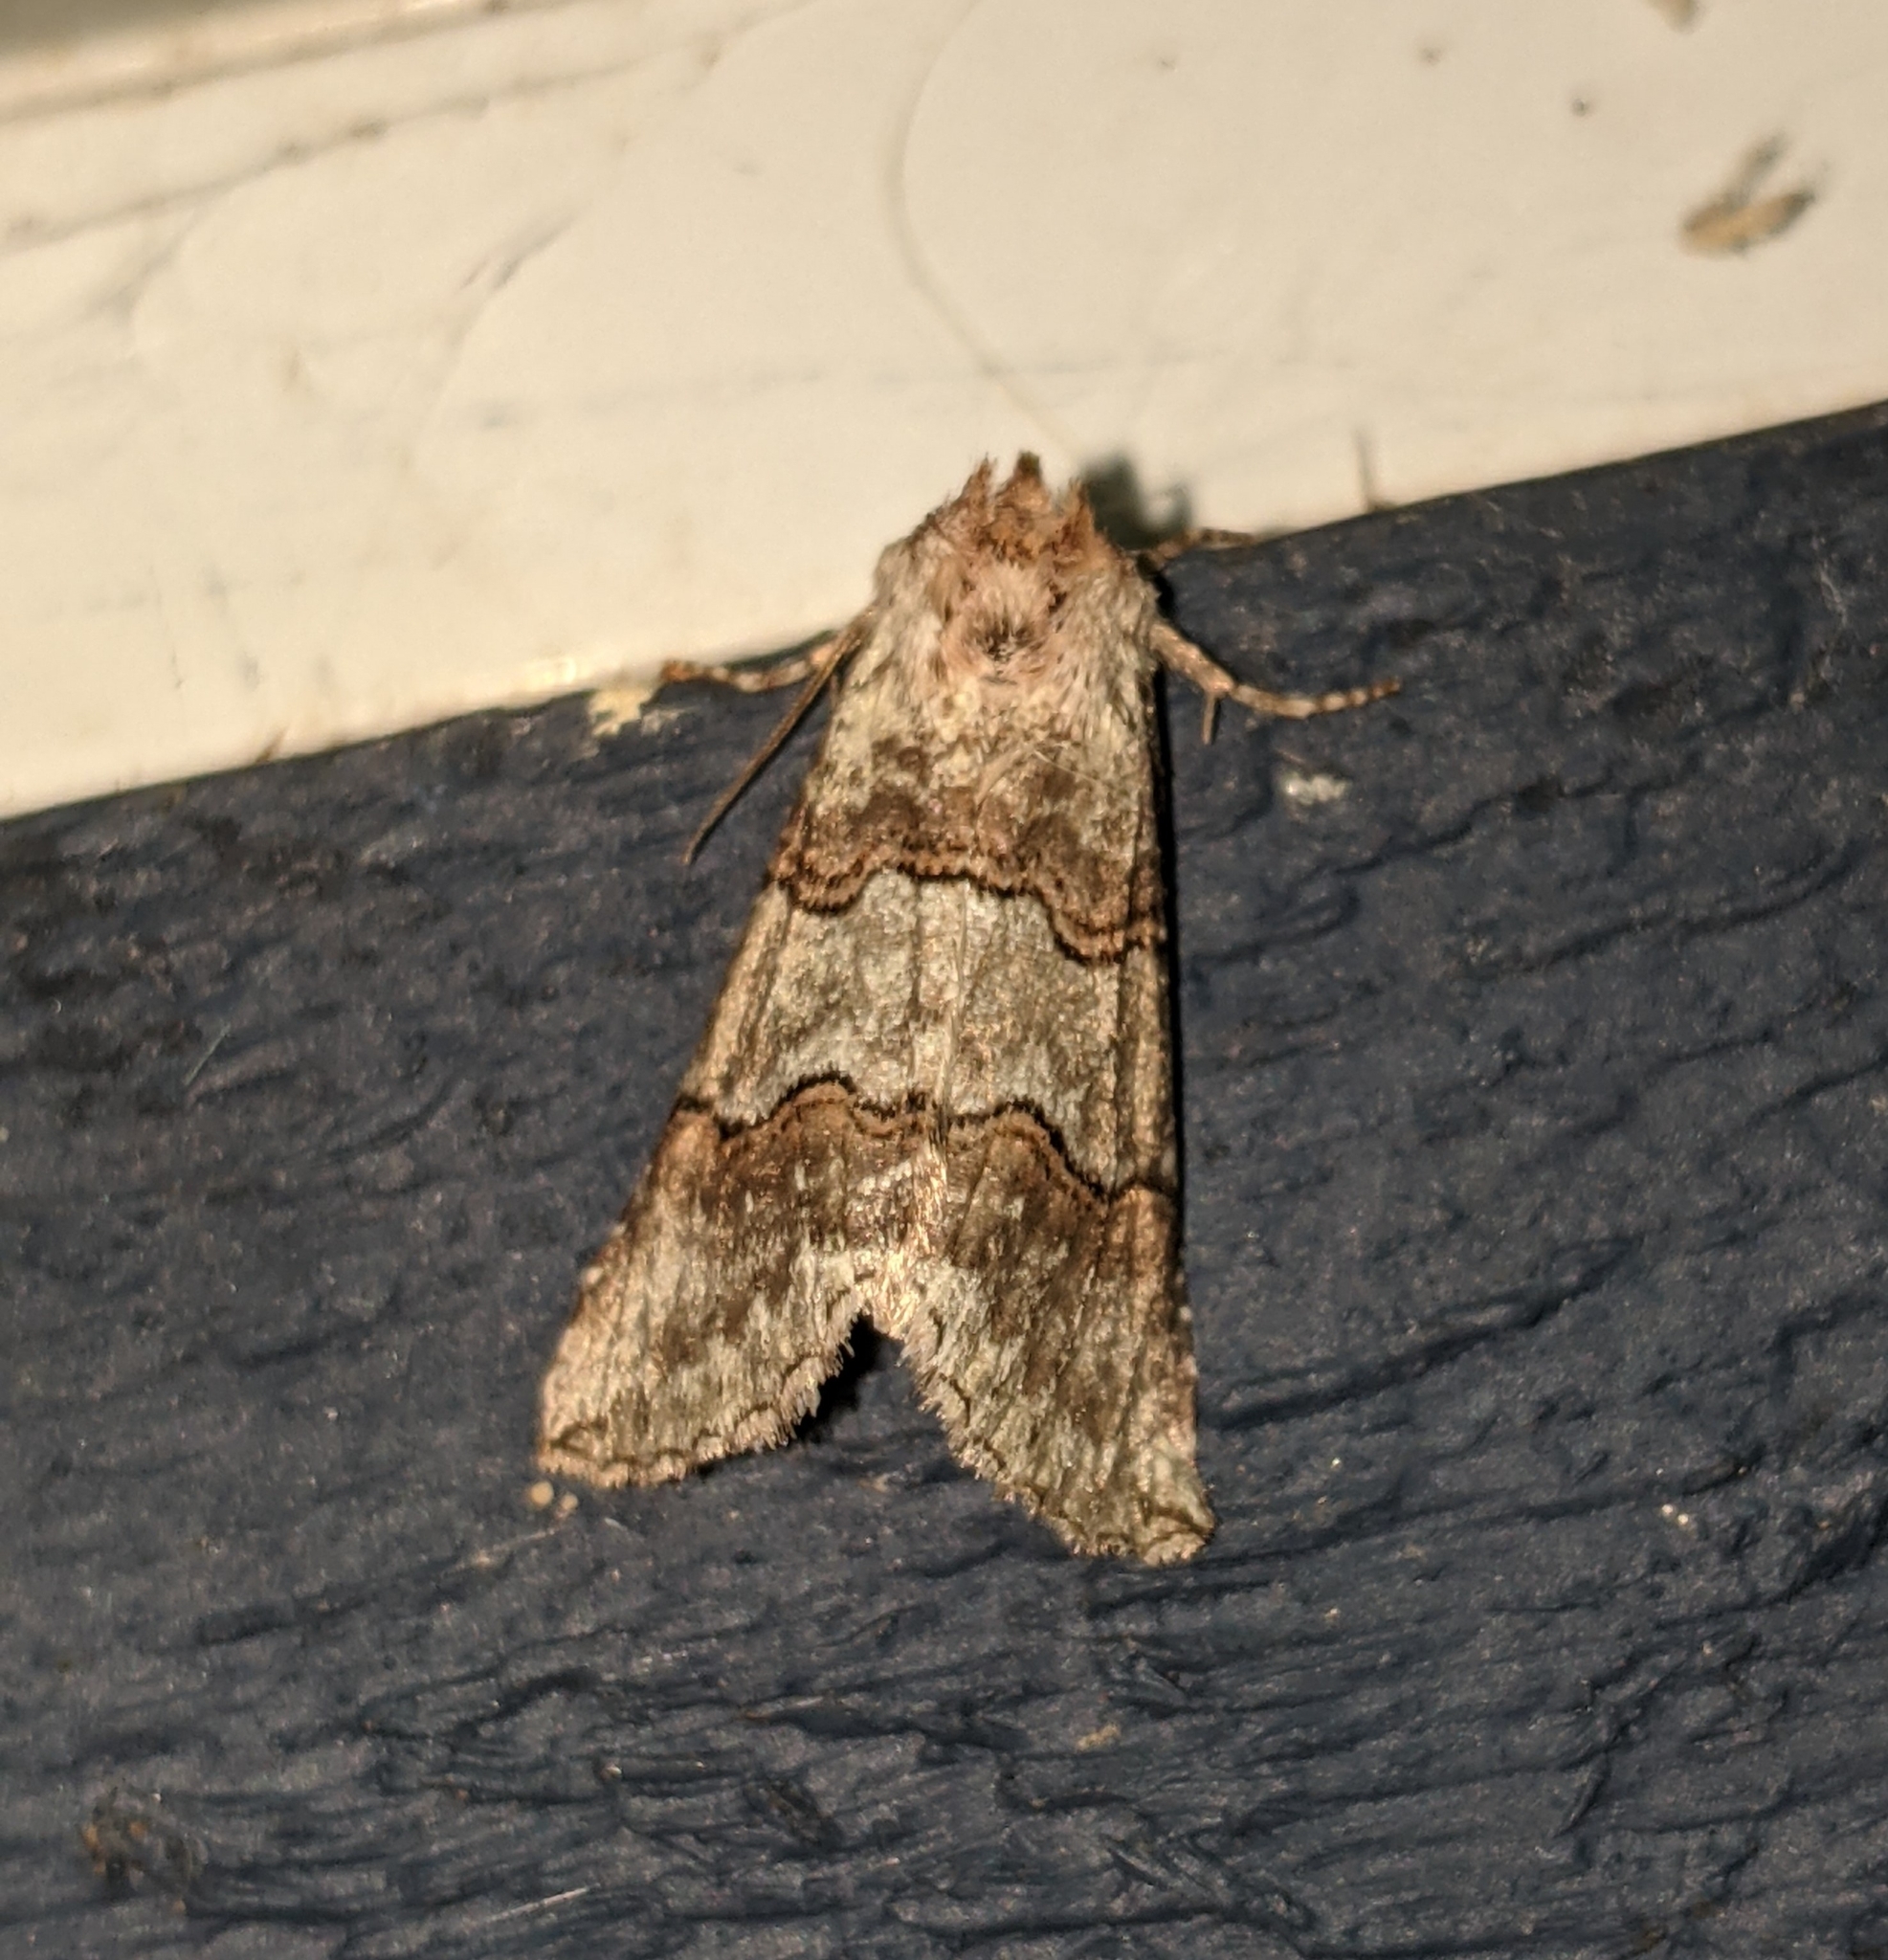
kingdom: Animalia
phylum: Arthropoda
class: Insecta
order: Lepidoptera
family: Drepanidae
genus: Ceranemota
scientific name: Ceranemota fasciata
